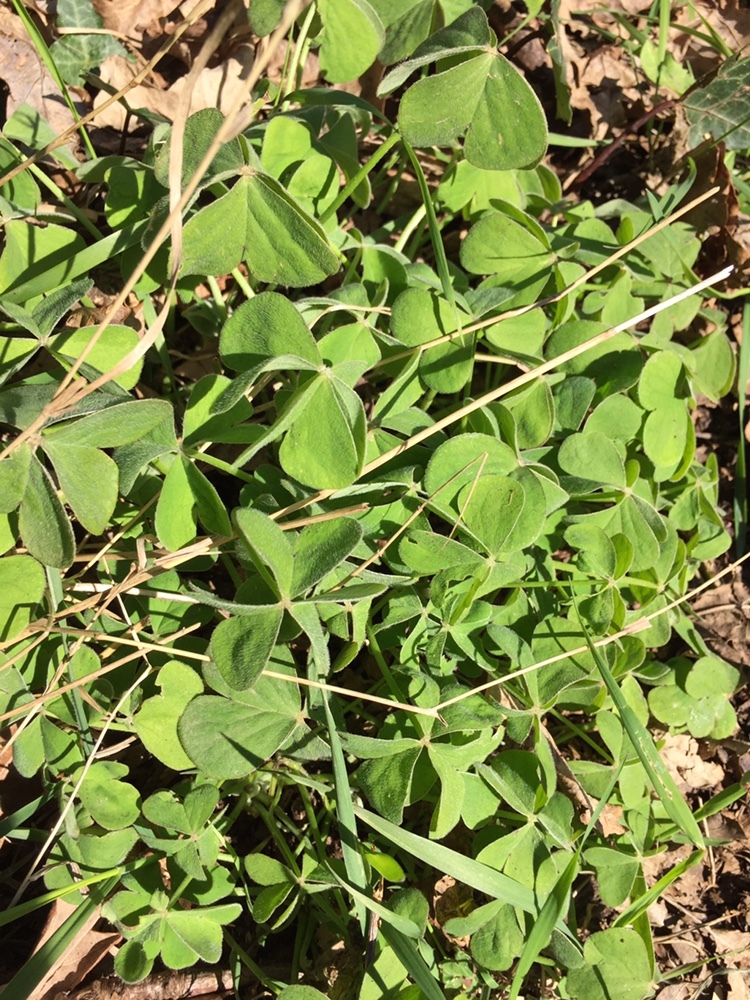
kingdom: Plantae
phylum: Tracheophyta
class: Magnoliopsida
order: Oxalidales
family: Oxalidaceae
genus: Oxalis
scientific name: Oxalis articulata
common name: Pink-sorrel
